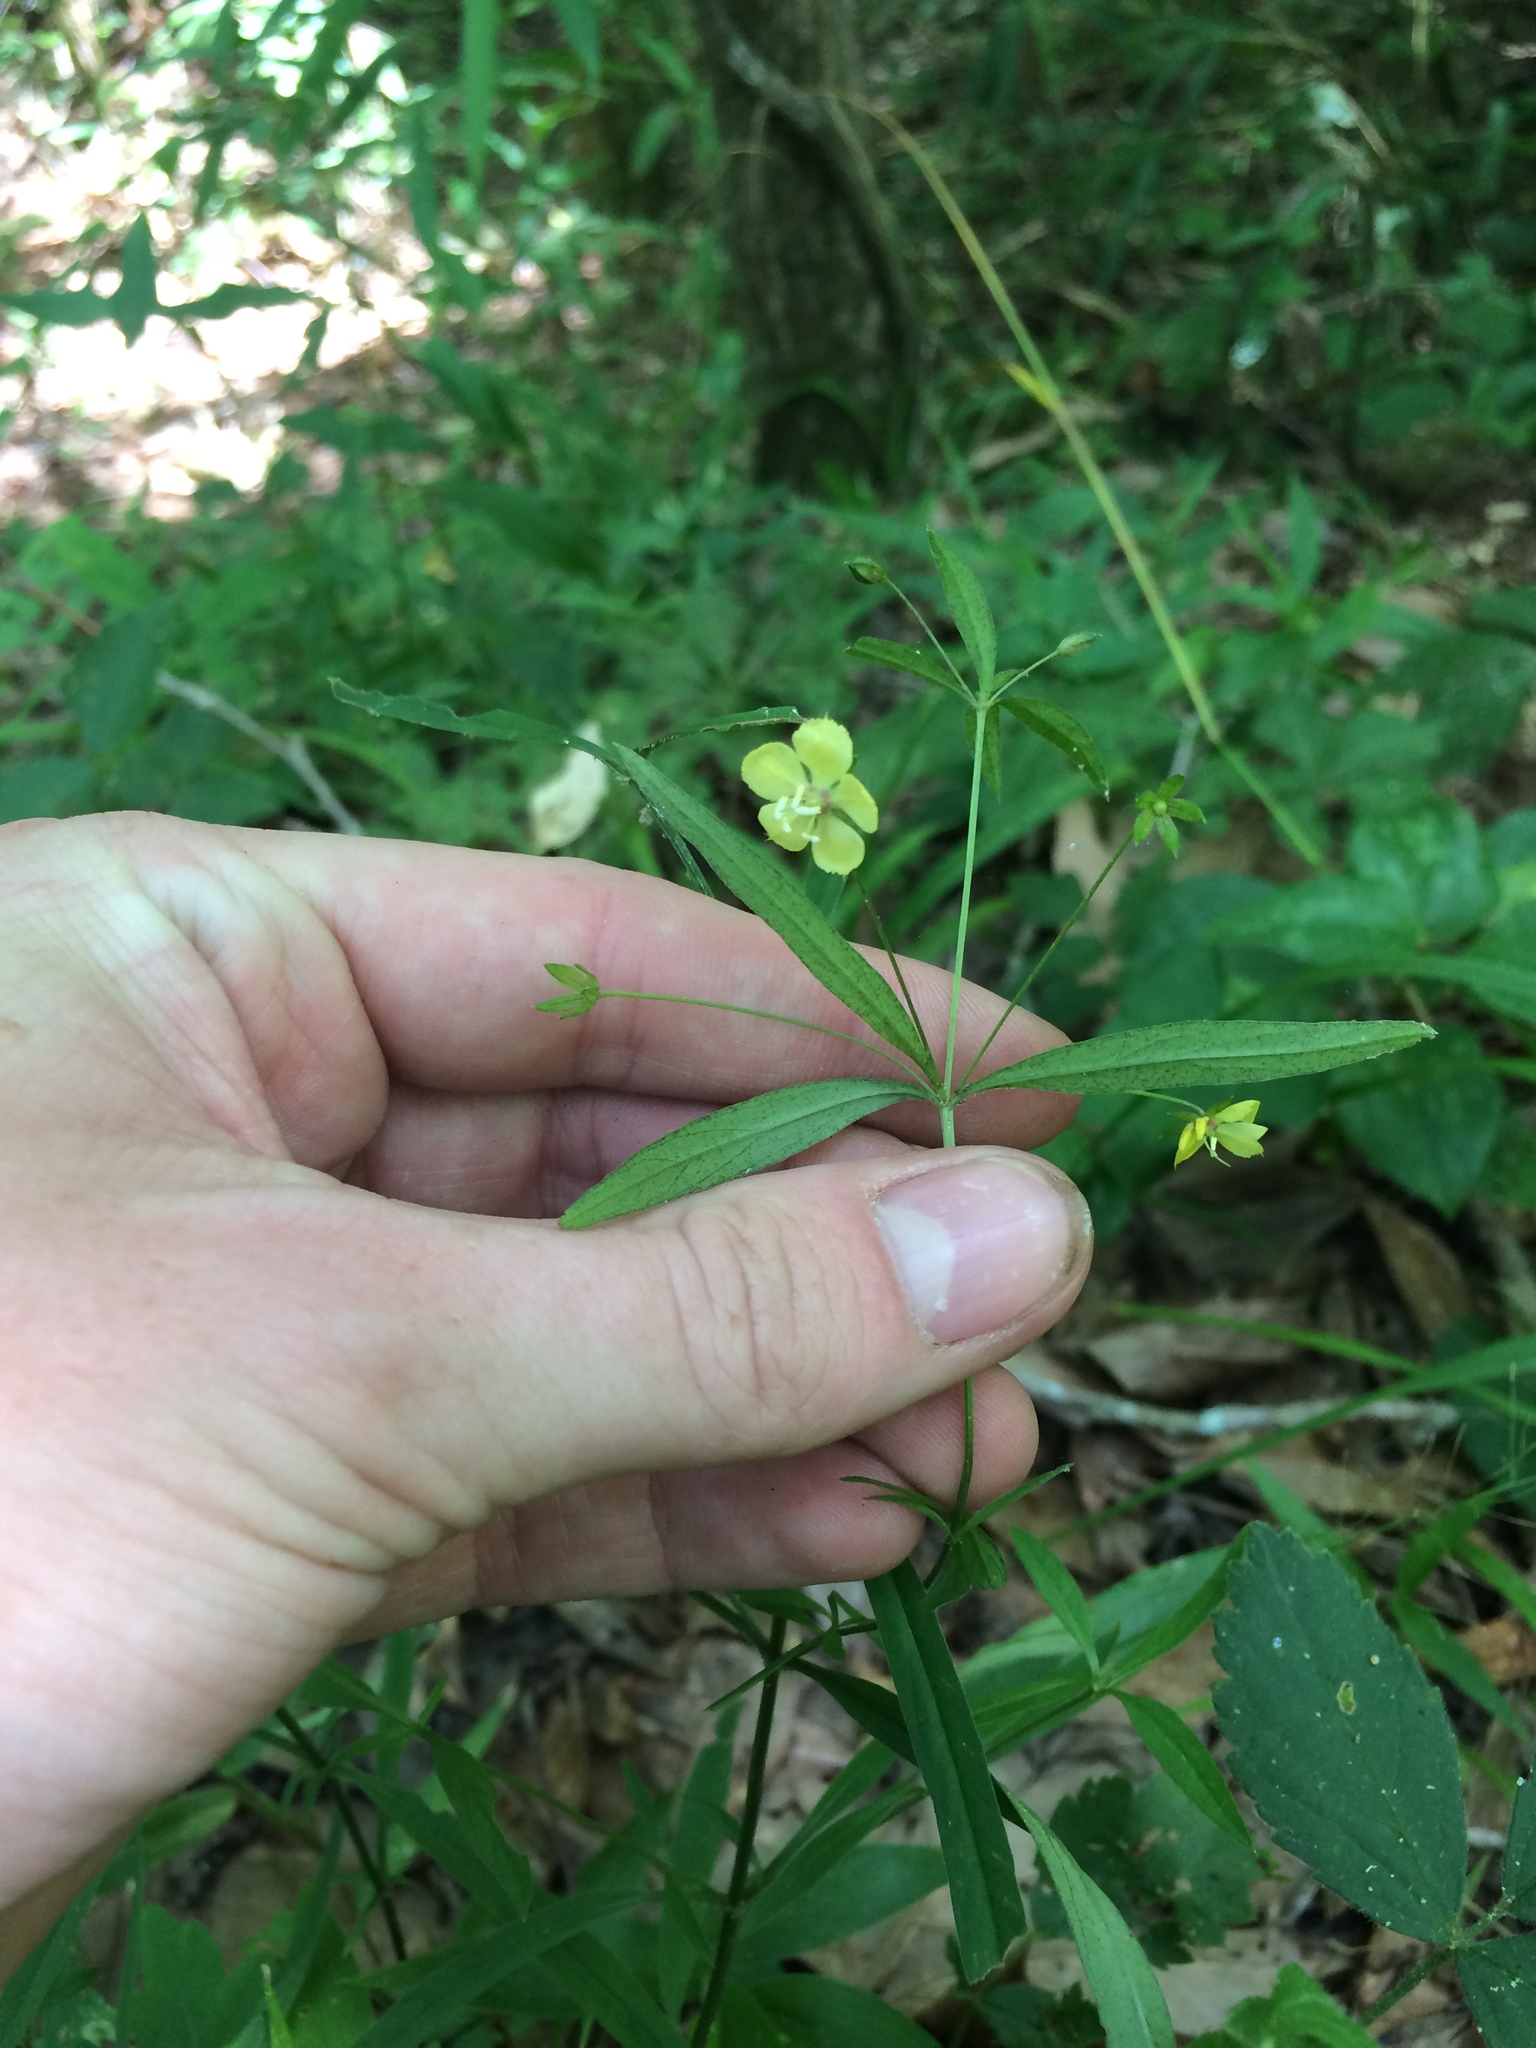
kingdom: Plantae
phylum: Tracheophyta
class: Magnoliopsida
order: Ericales
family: Primulaceae
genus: Lysimachia
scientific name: Lysimachia lanceolata
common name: Lance-leaved loosestrife
